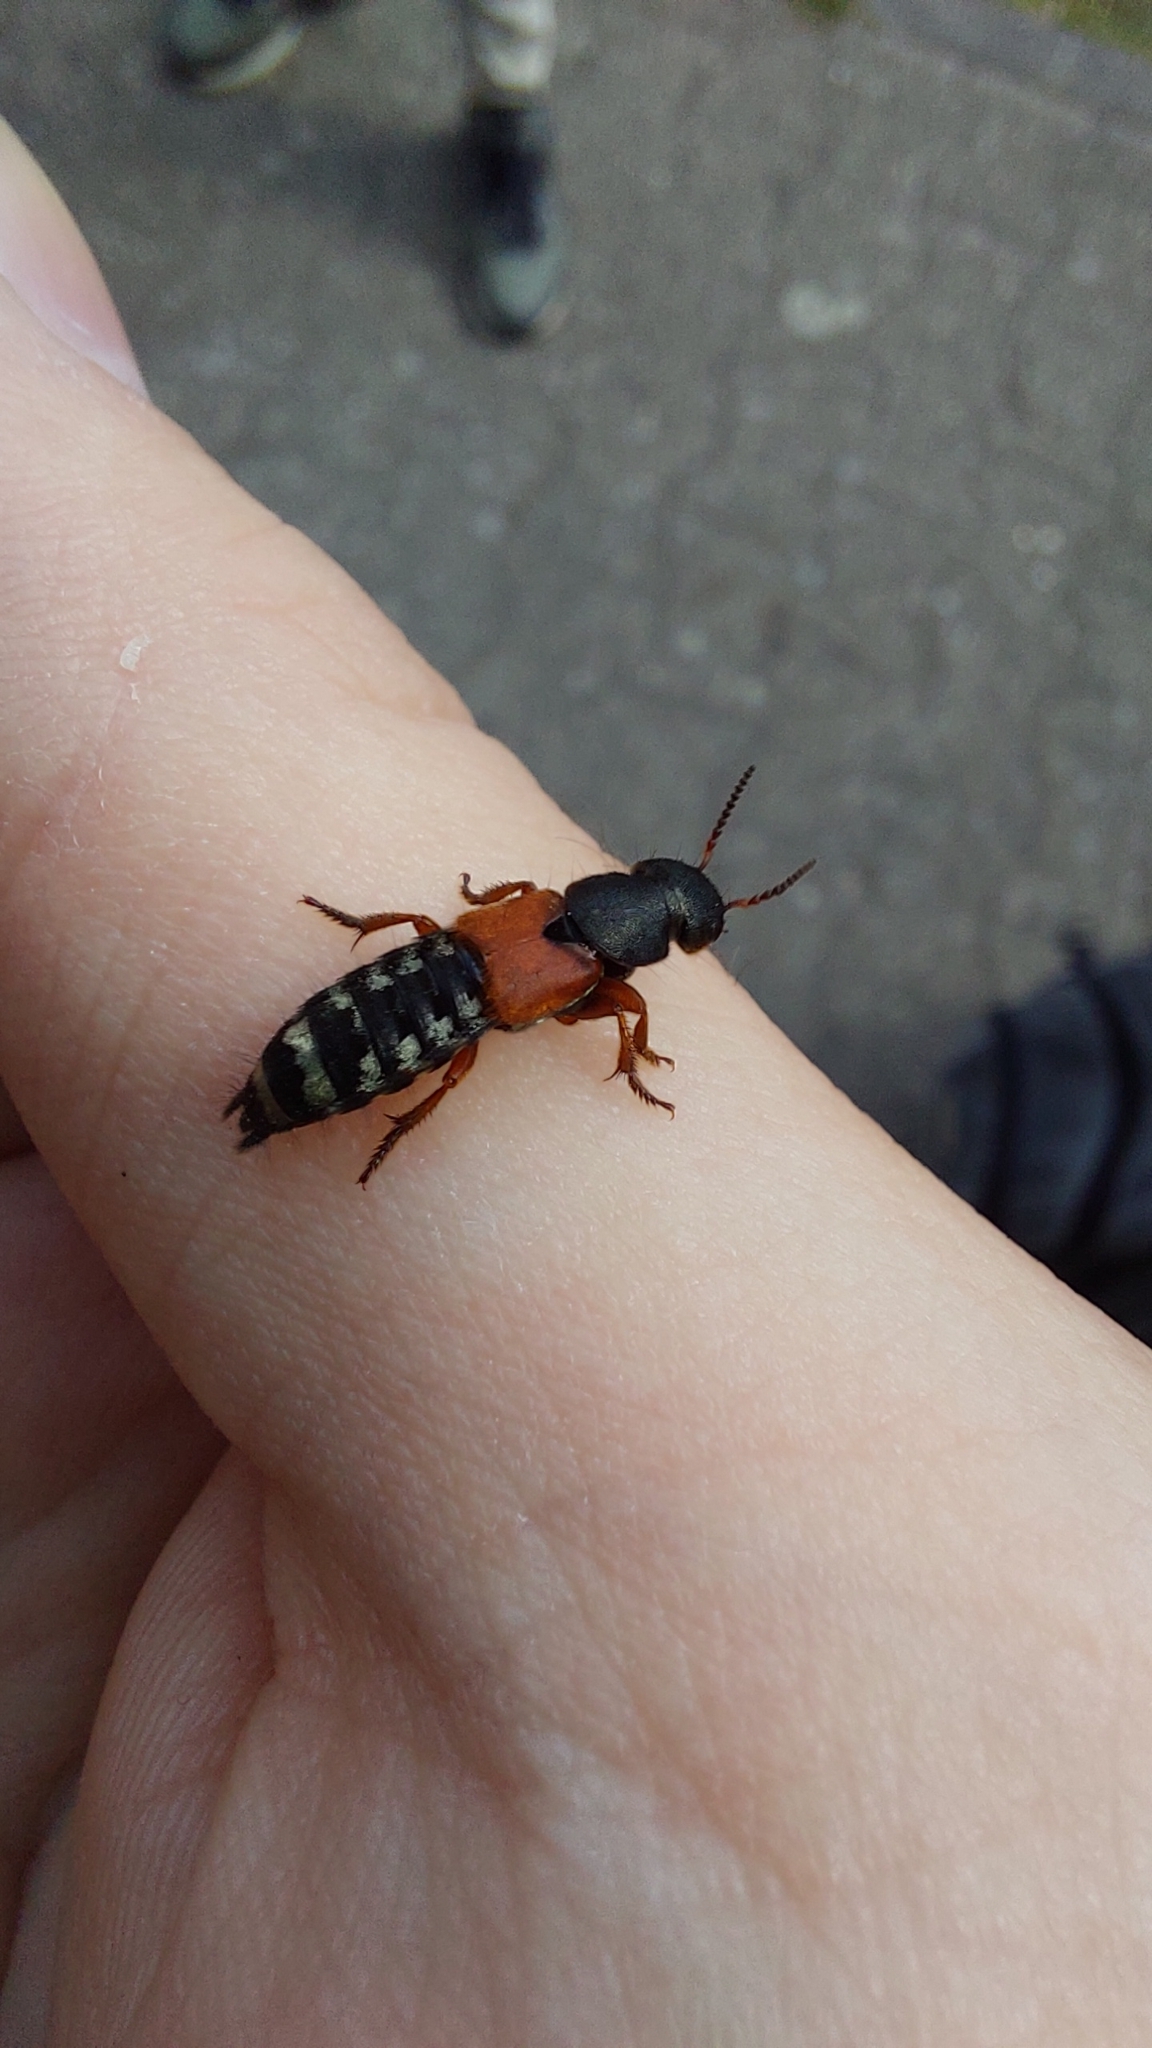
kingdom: Animalia
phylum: Arthropoda
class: Insecta
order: Coleoptera
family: Staphylinidae
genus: Platydracus
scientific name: Platydracus stercorarius
